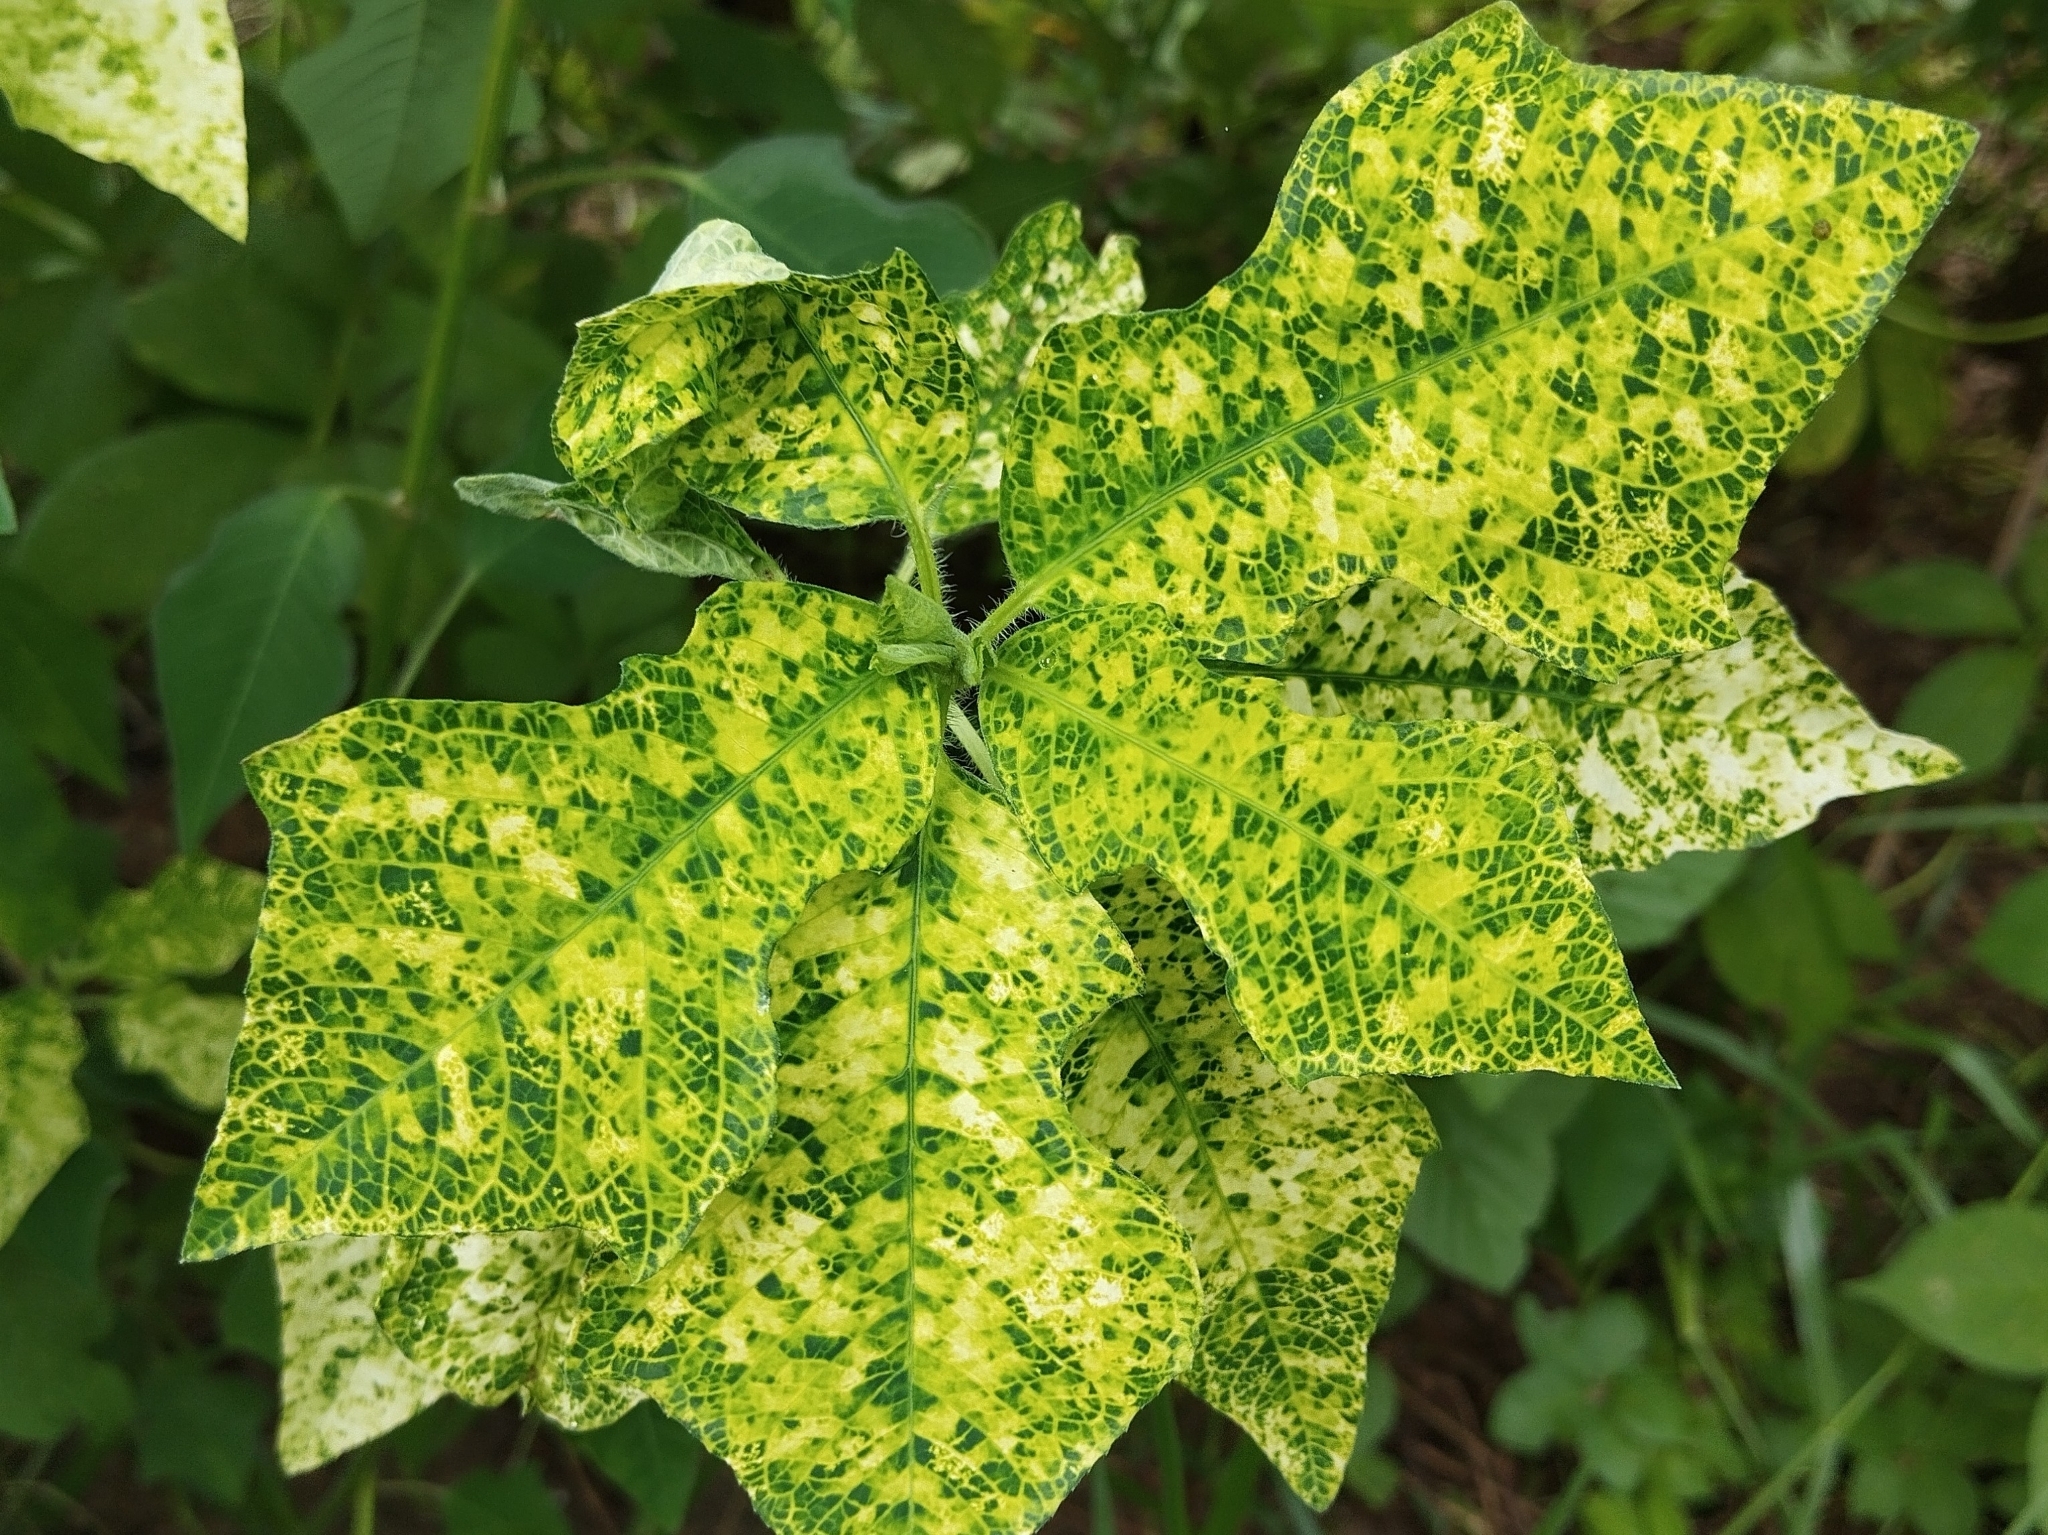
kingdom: Plantae
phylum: Tracheophyta
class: Magnoliopsida
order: Malpighiales
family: Euphorbiaceae
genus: Euphorbia
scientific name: Euphorbia heterophylla
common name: Mexican fireplant
